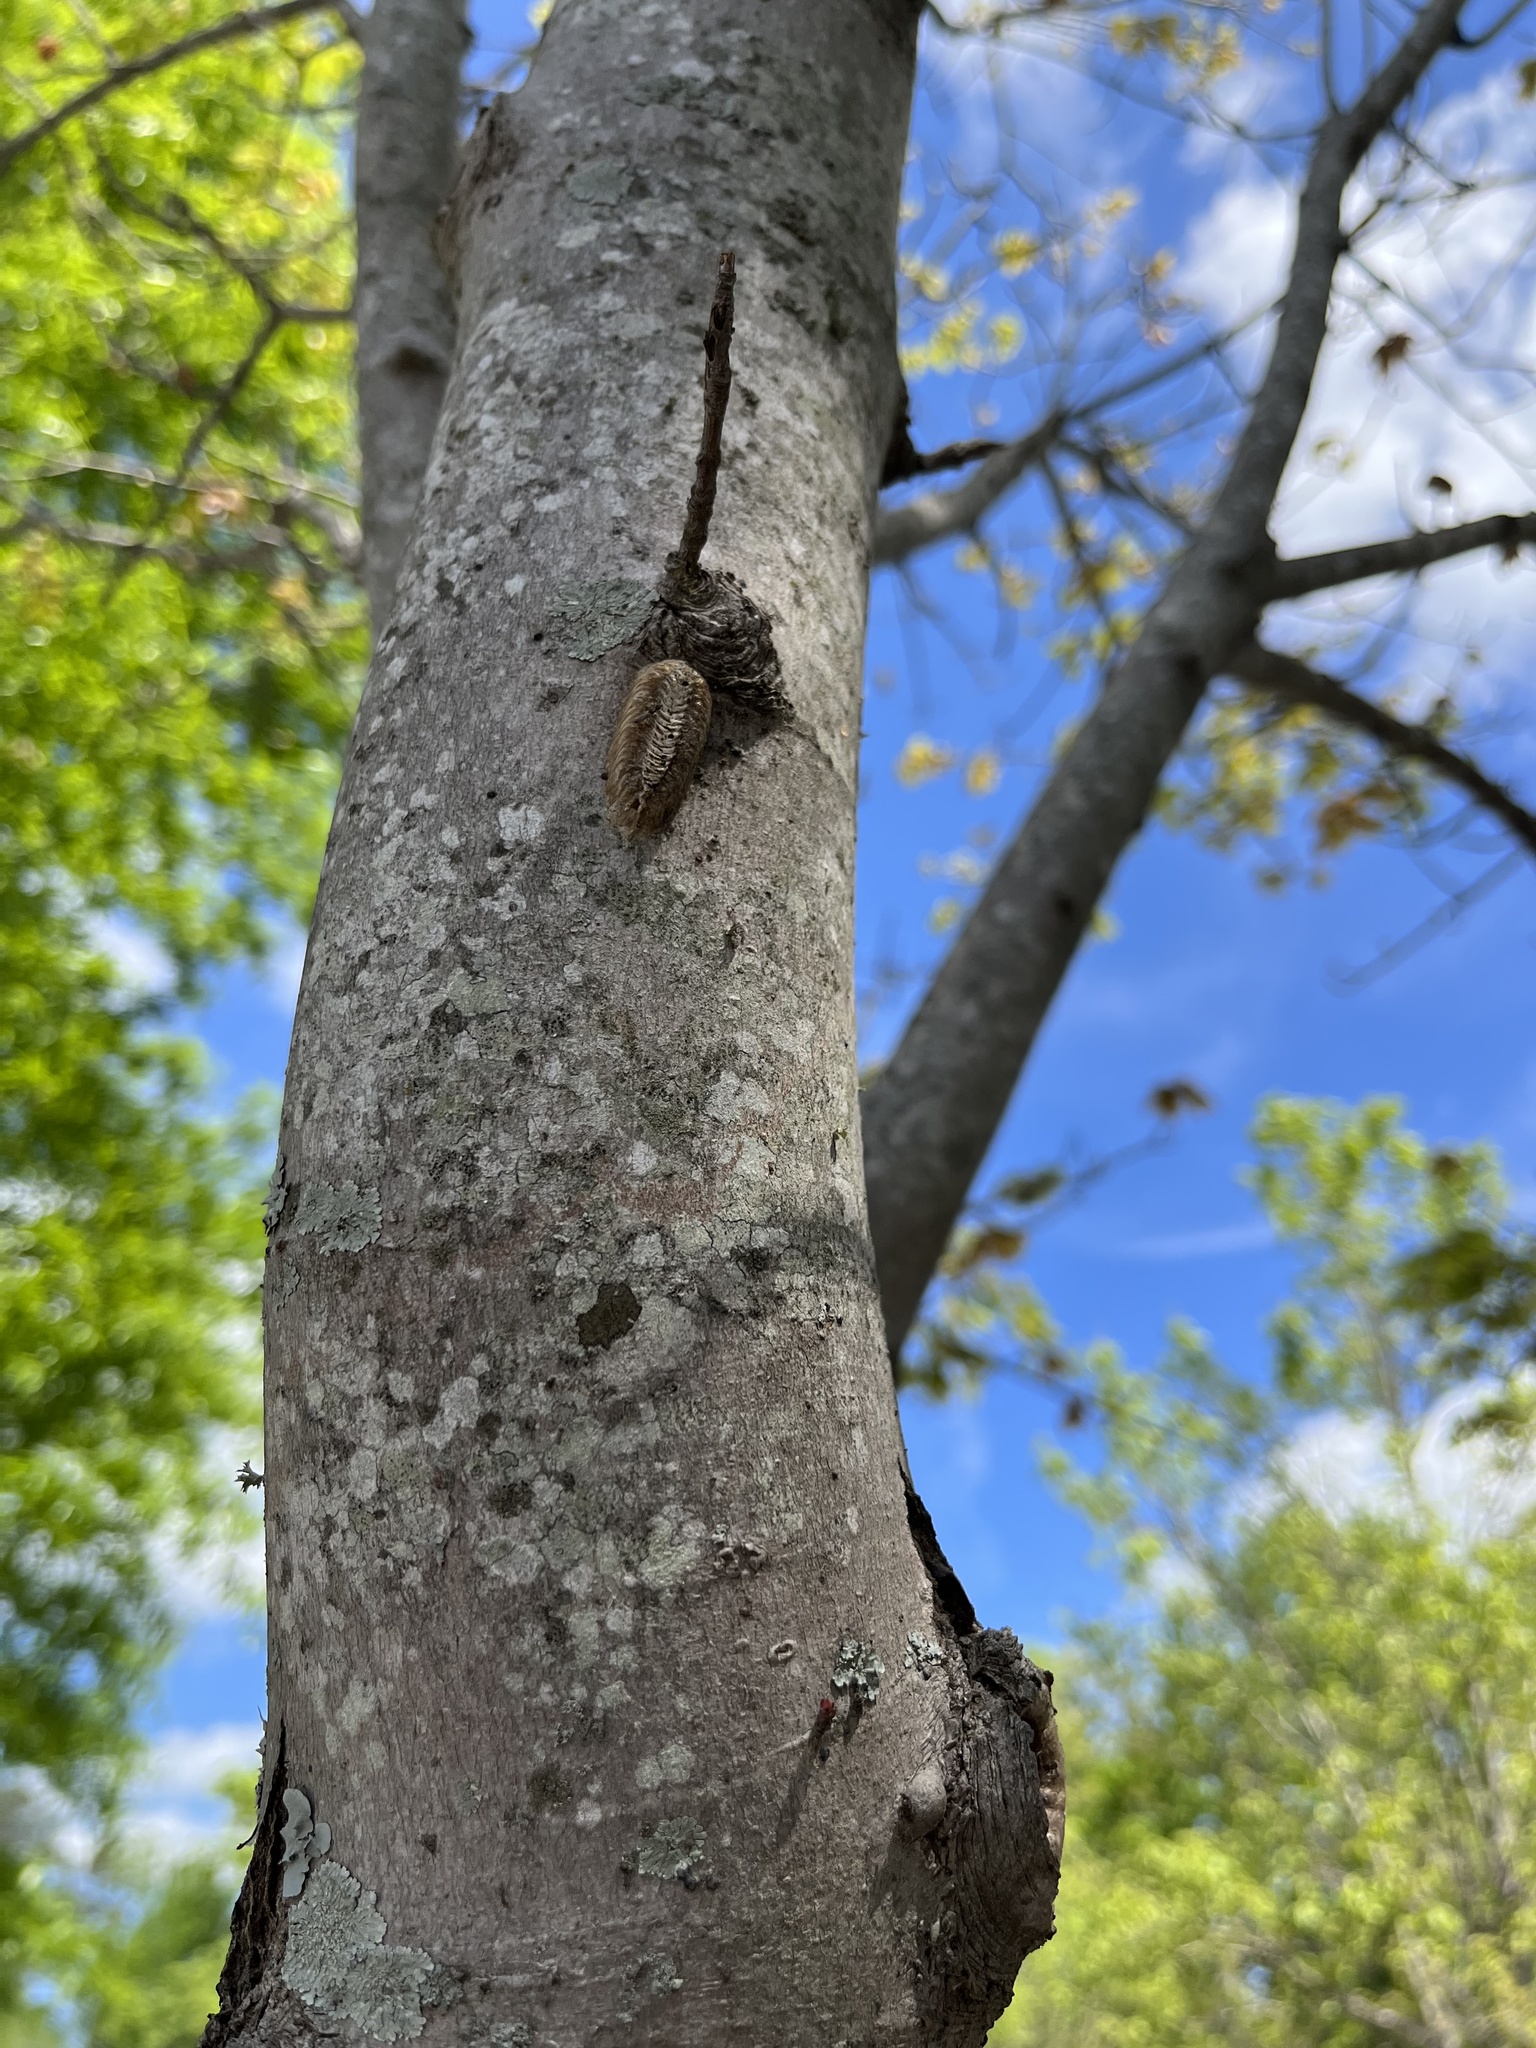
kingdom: Animalia
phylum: Arthropoda
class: Insecta
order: Mantodea
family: Mantidae
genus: Stagmomantis
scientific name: Stagmomantis carolina
